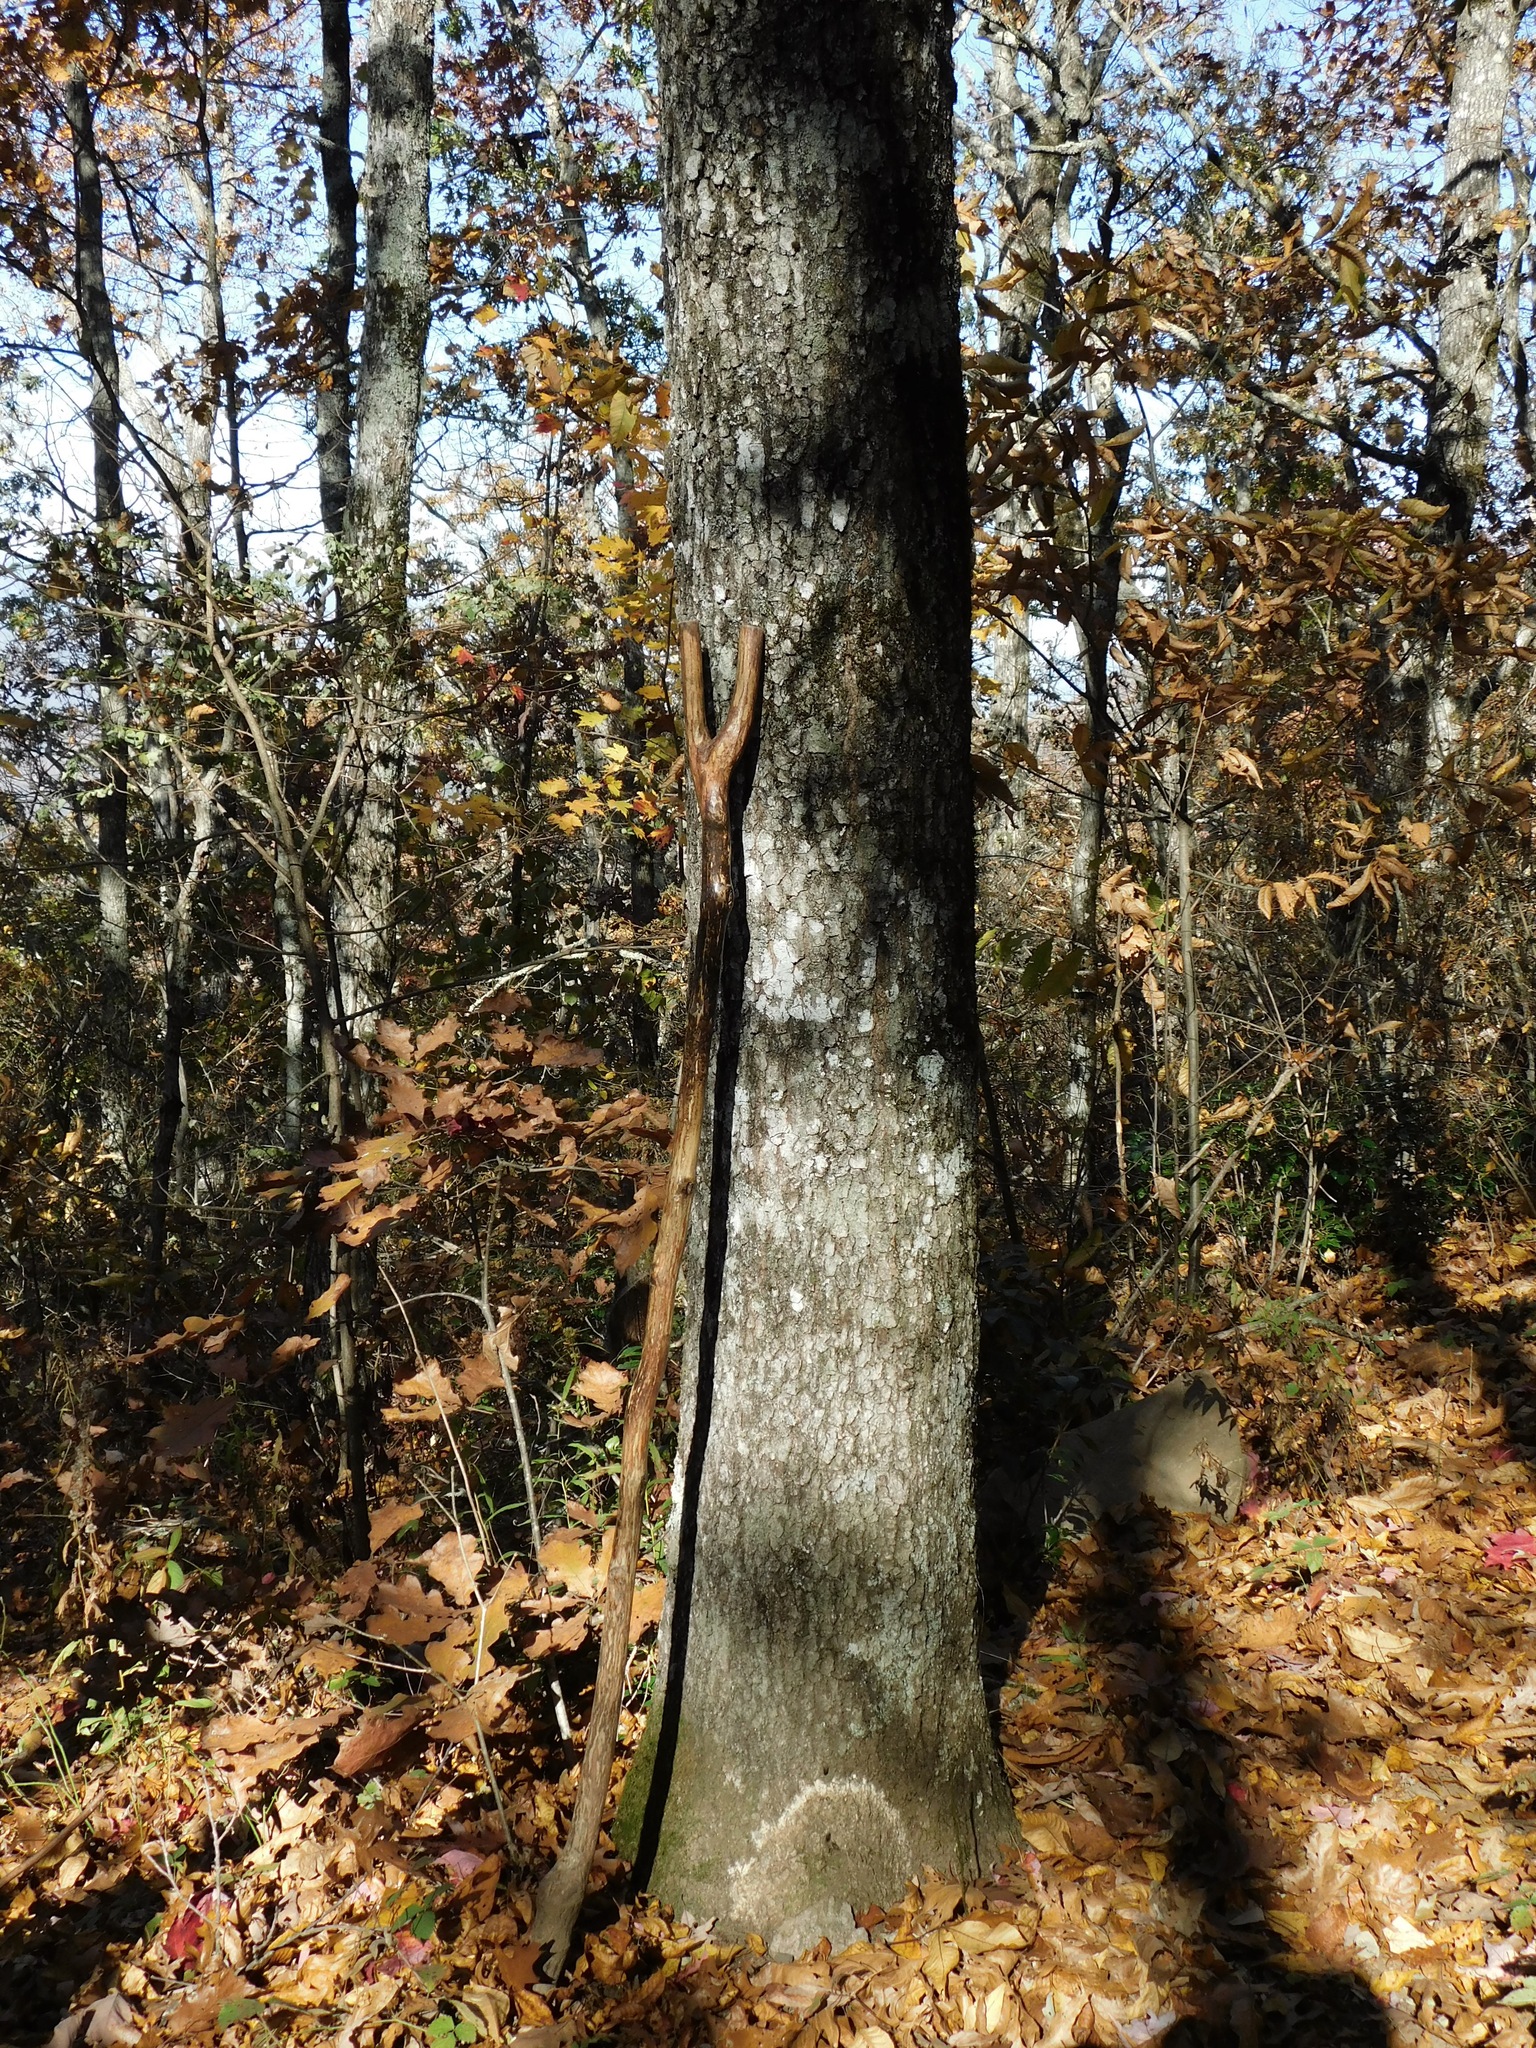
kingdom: Plantae
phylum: Tracheophyta
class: Magnoliopsida
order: Fagales
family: Fagaceae
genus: Quercus
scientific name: Quercus rubra
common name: Red oak
